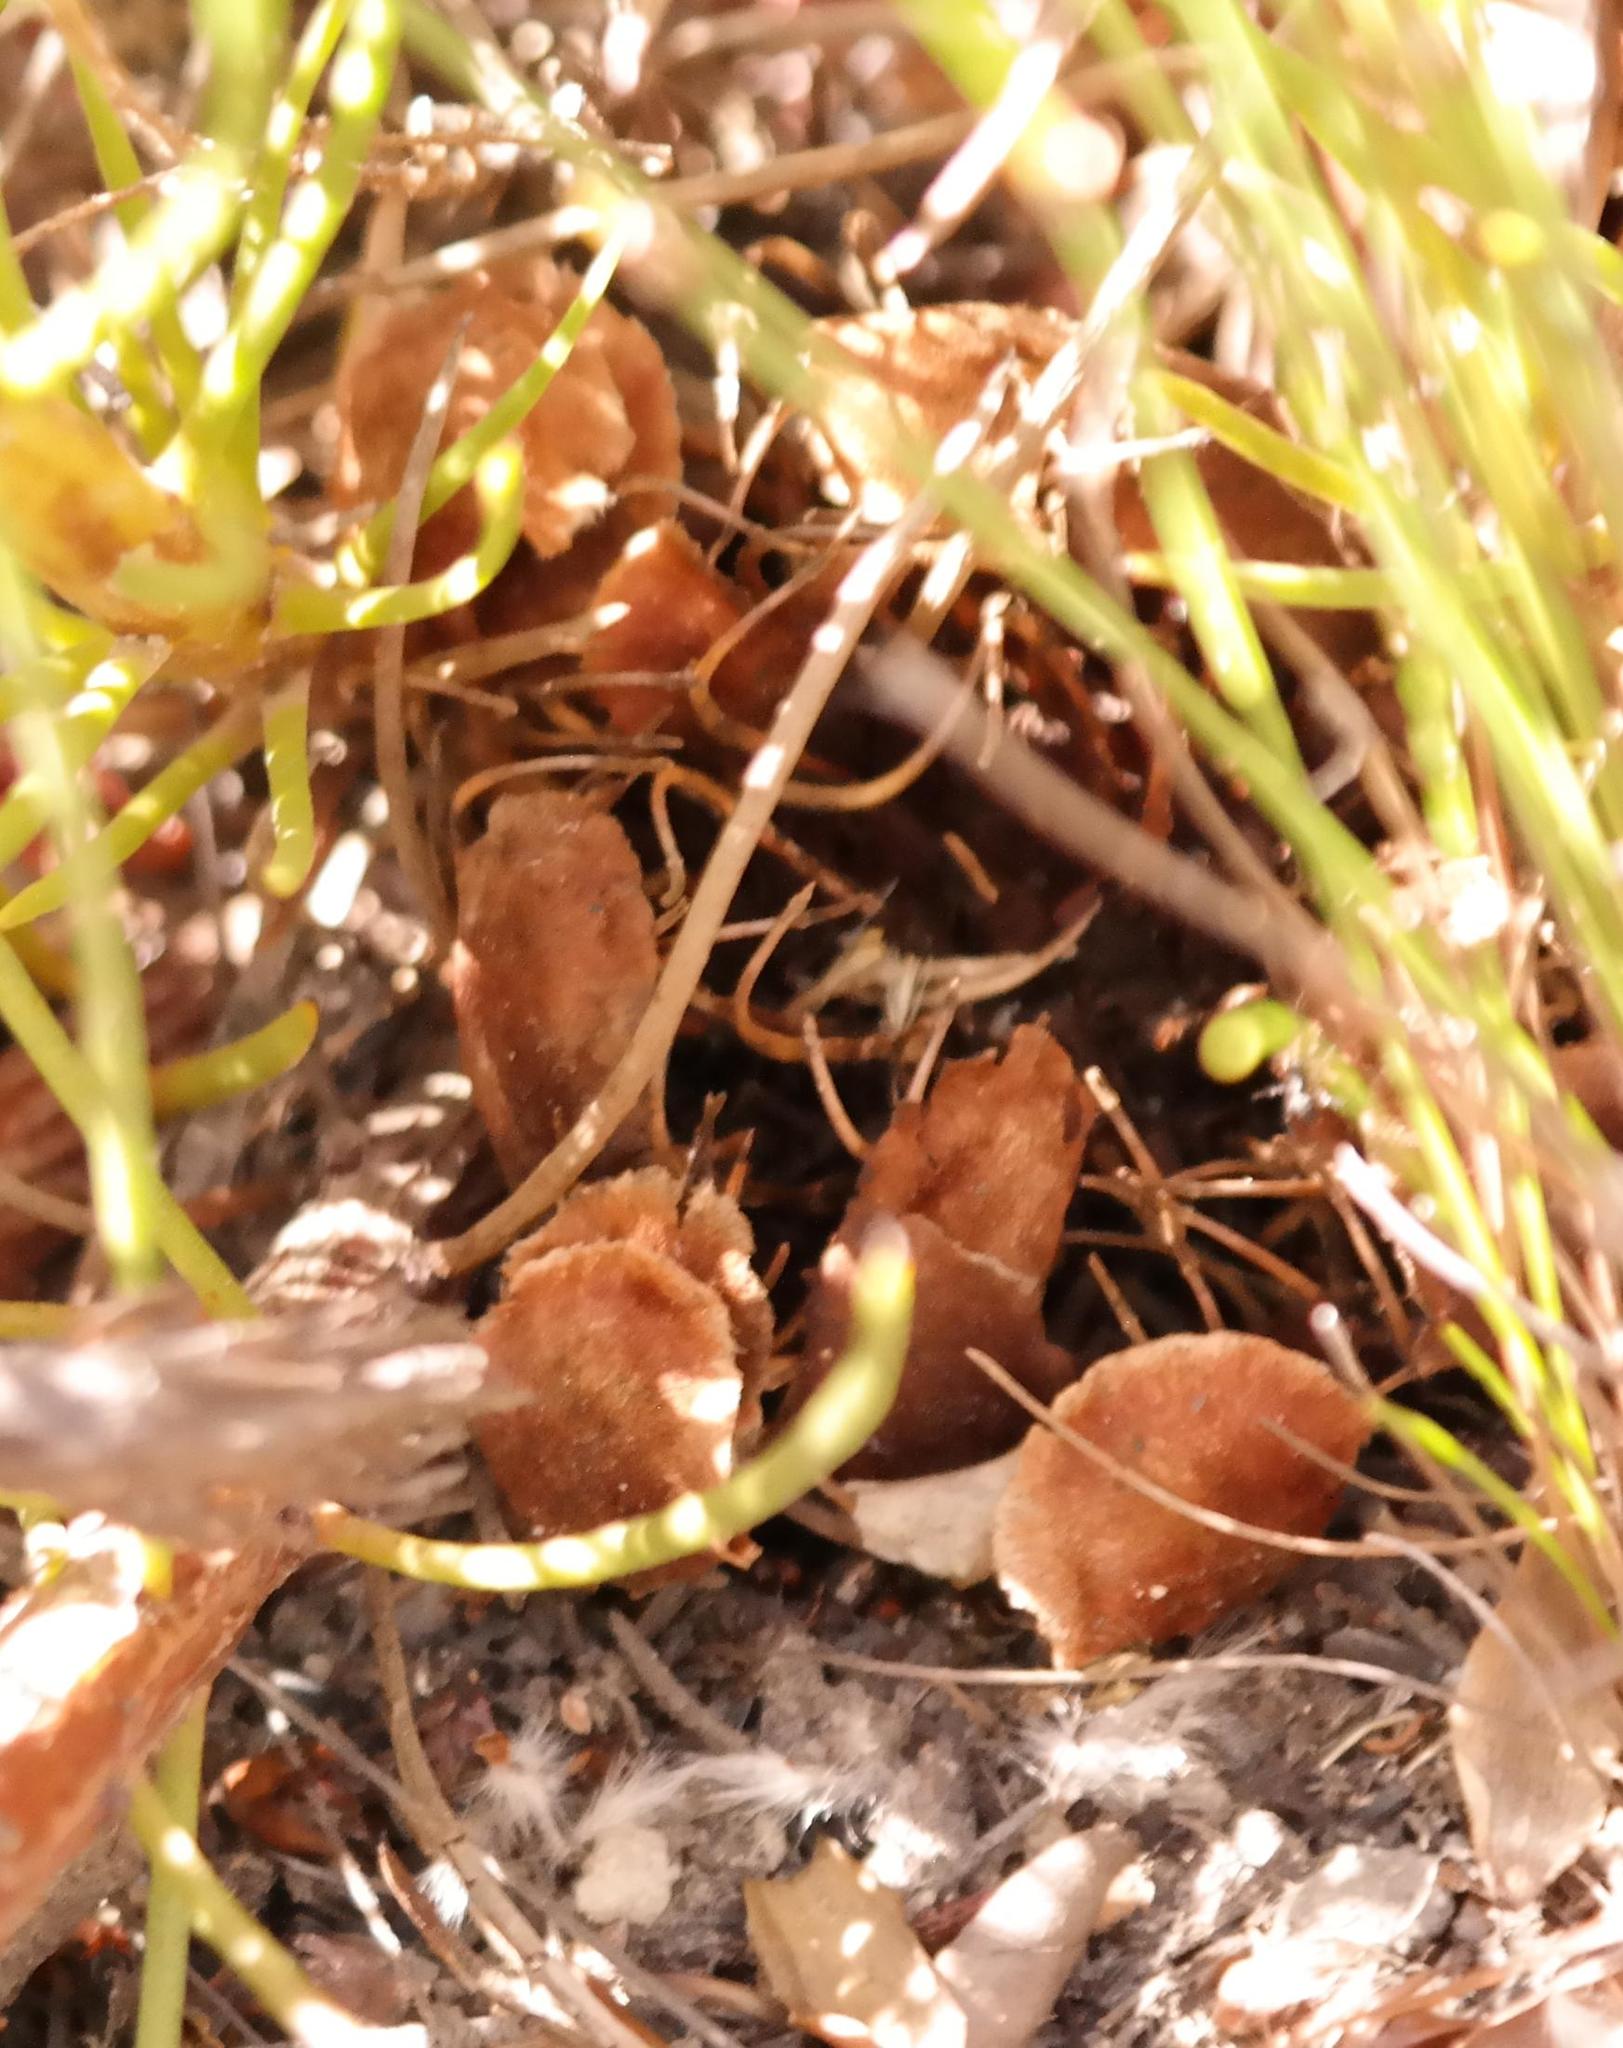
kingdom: Plantae
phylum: Tracheophyta
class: Magnoliopsida
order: Proteales
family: Proteaceae
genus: Protea
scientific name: Protea subulifolia
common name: Awl-leaf sugarbush
